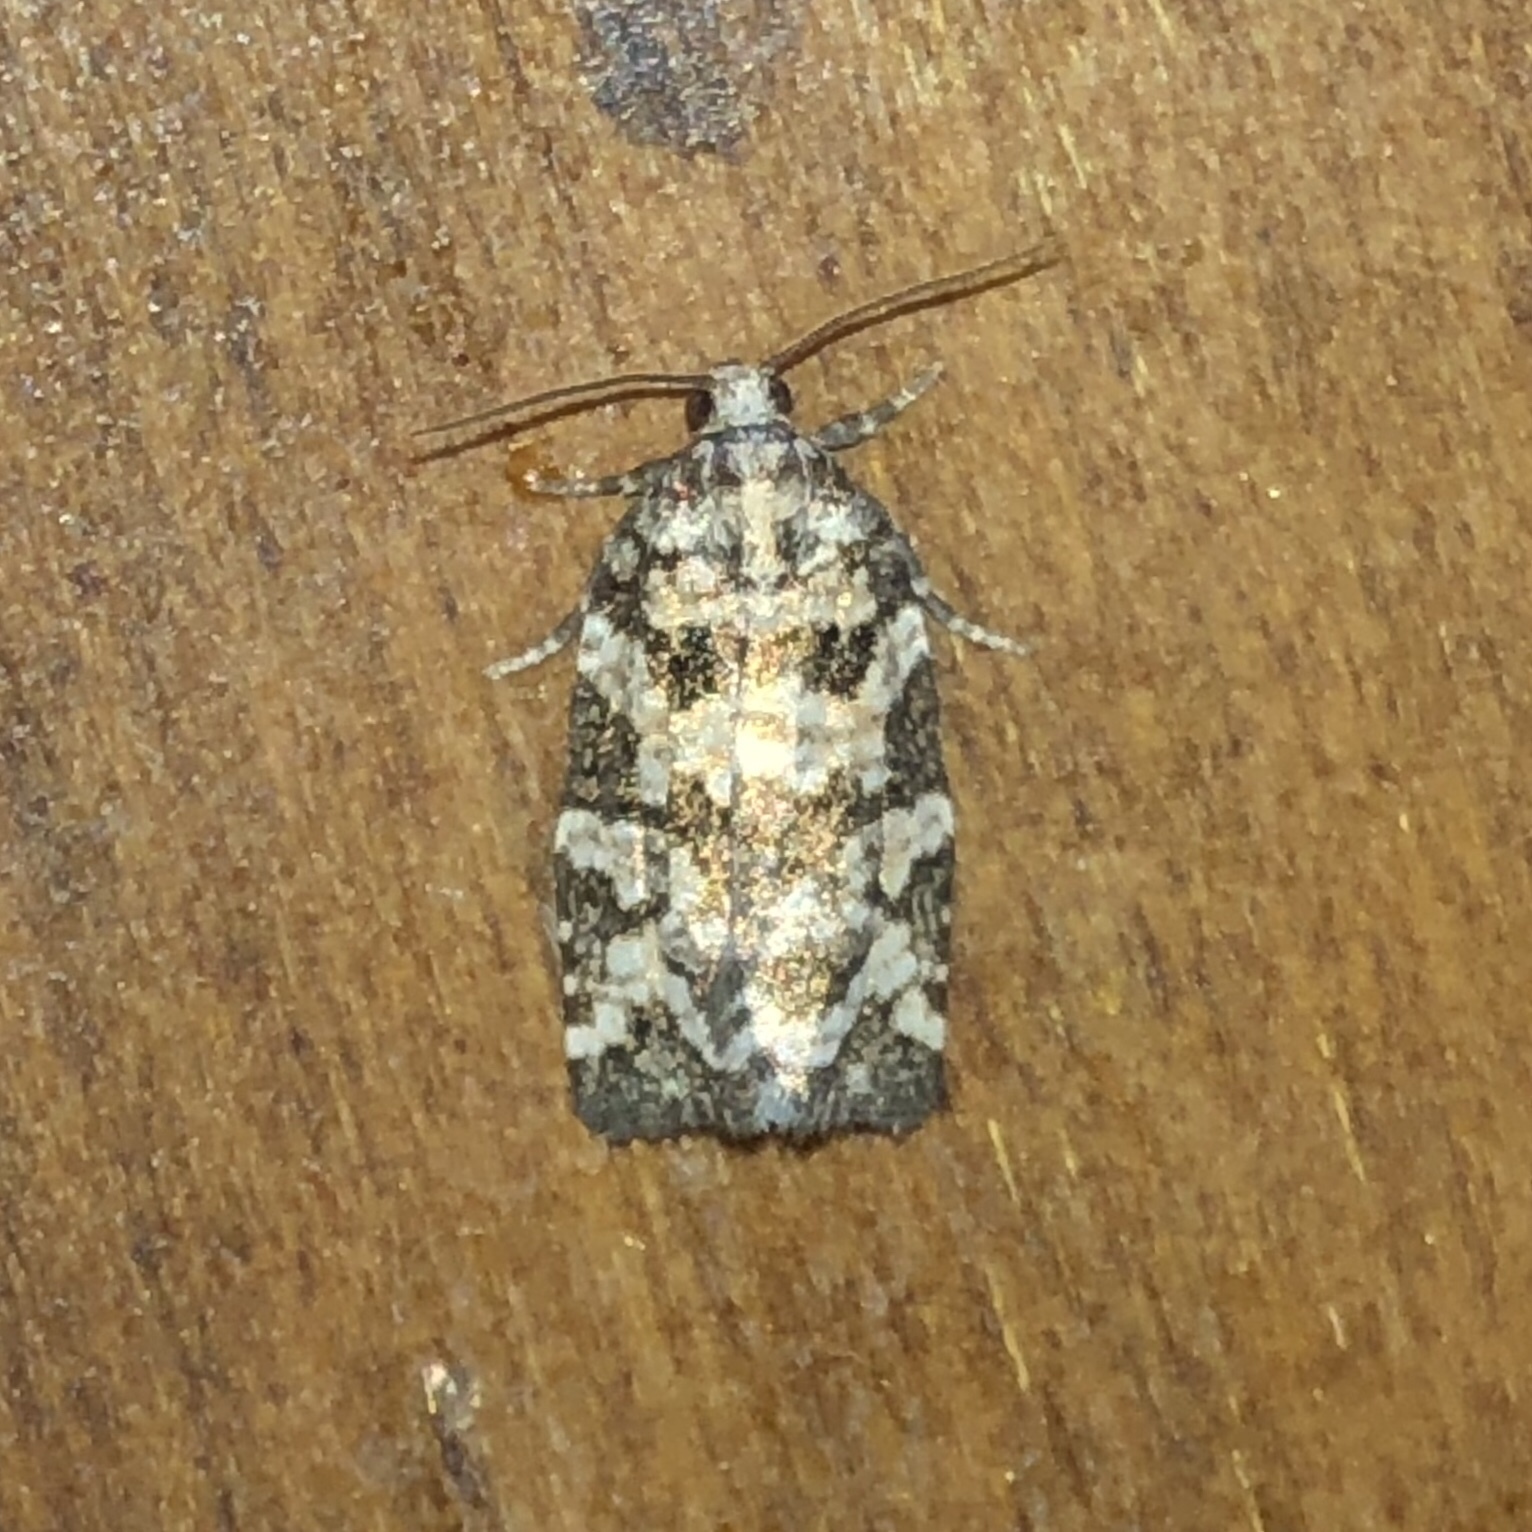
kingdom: Animalia
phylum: Arthropoda
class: Insecta
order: Lepidoptera
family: Tortricidae
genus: Archips
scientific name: Archips packardiana
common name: Spring spruce needle moth
